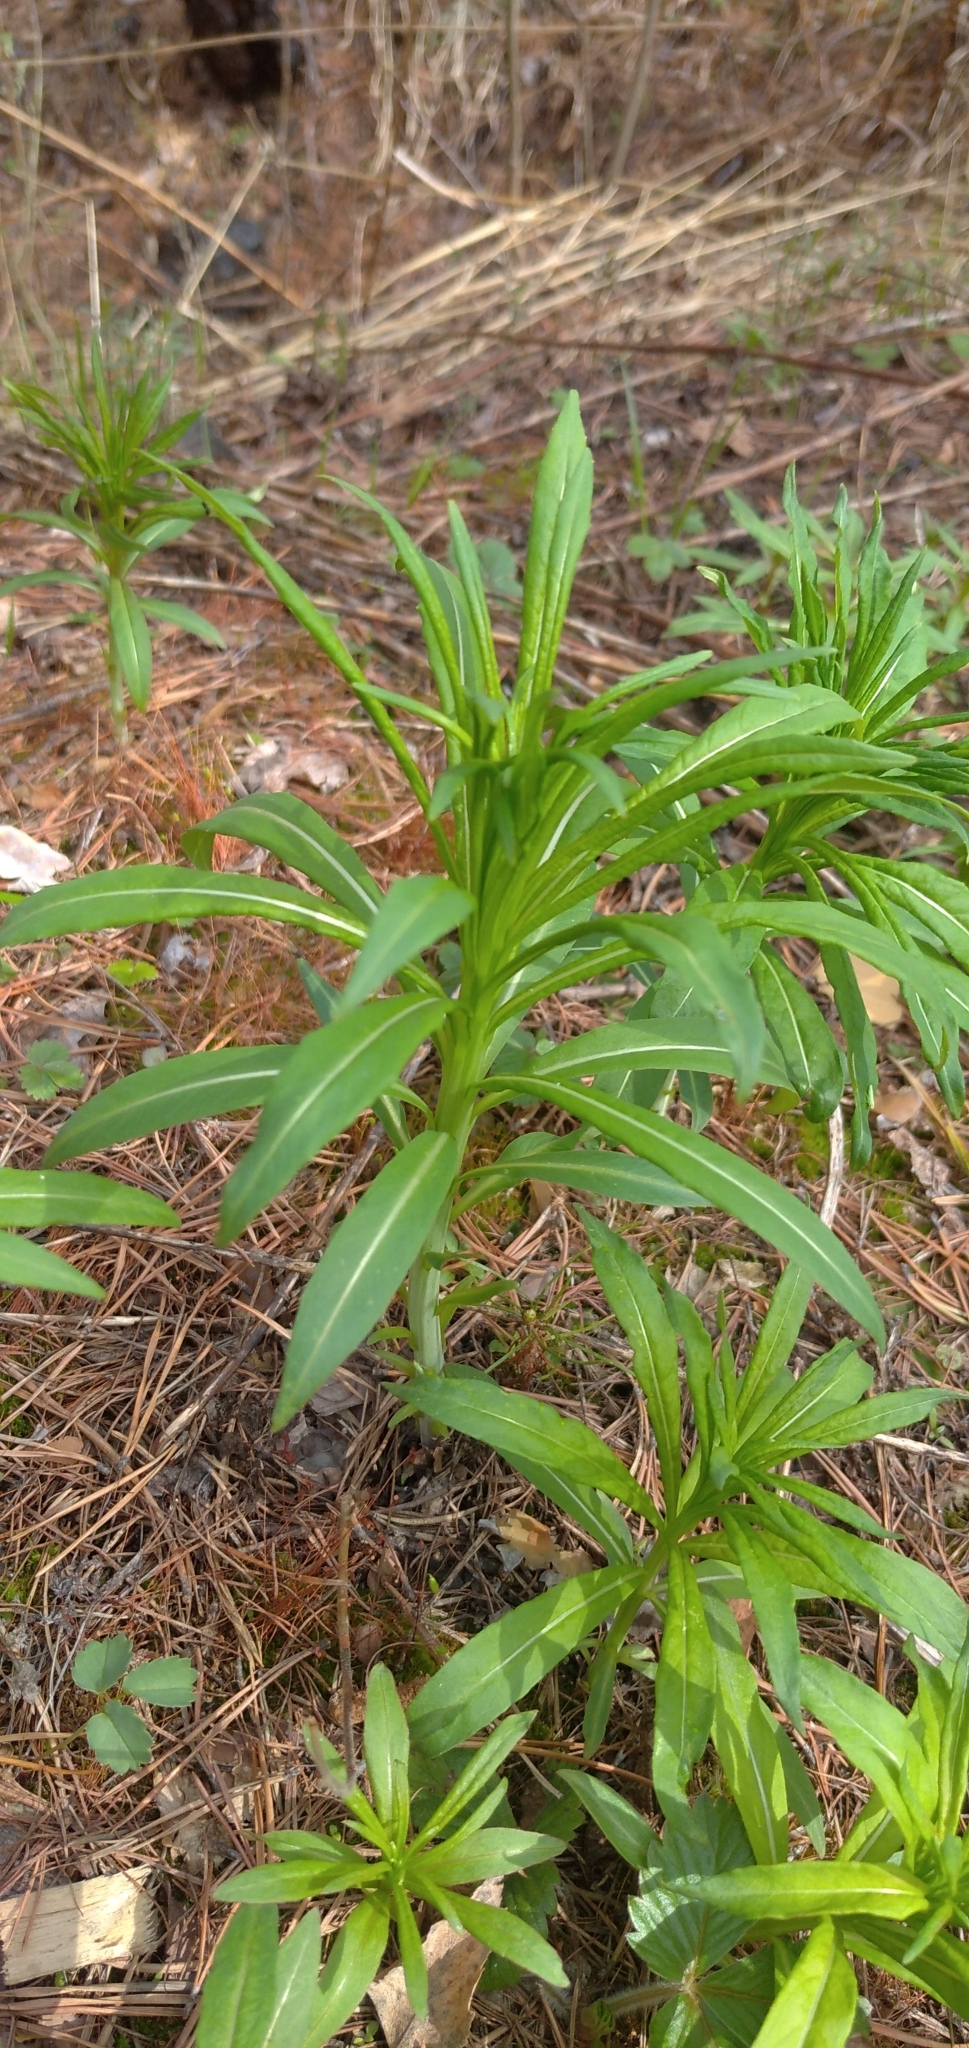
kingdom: Plantae
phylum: Tracheophyta
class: Magnoliopsida
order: Myrtales
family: Onagraceae
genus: Chamaenerion
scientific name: Chamaenerion angustifolium
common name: Fireweed
